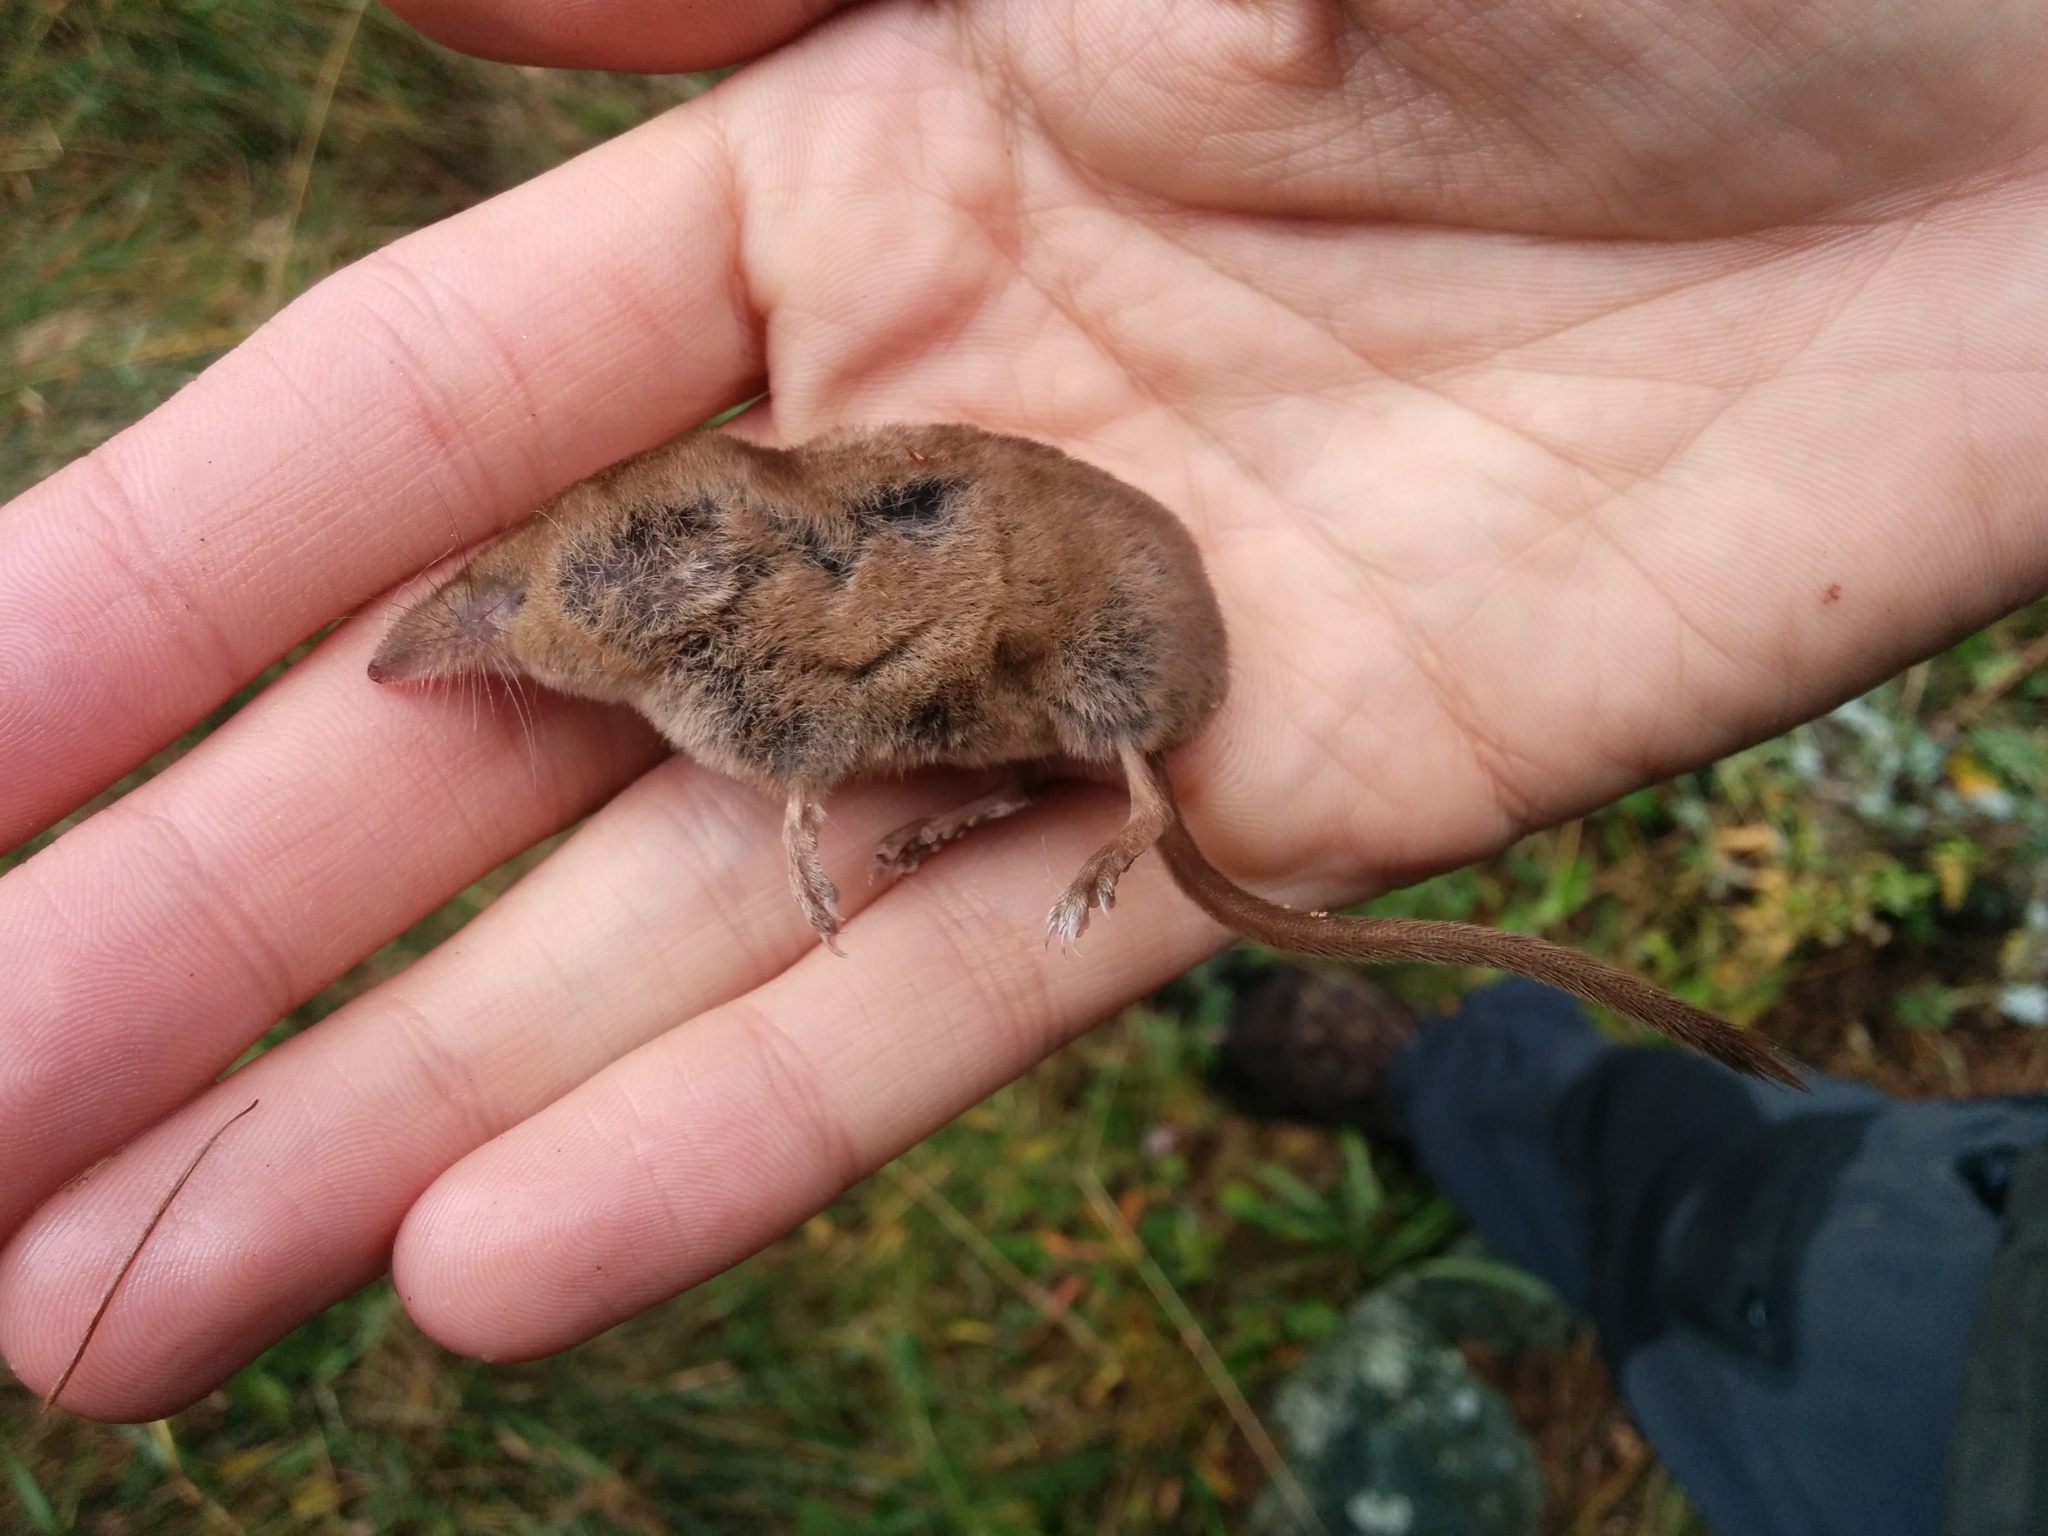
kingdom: Animalia
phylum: Chordata
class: Mammalia
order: Soricomorpha
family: Soricidae
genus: Sorex
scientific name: Sorex minutus
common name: Eurasian pygmy shrew
